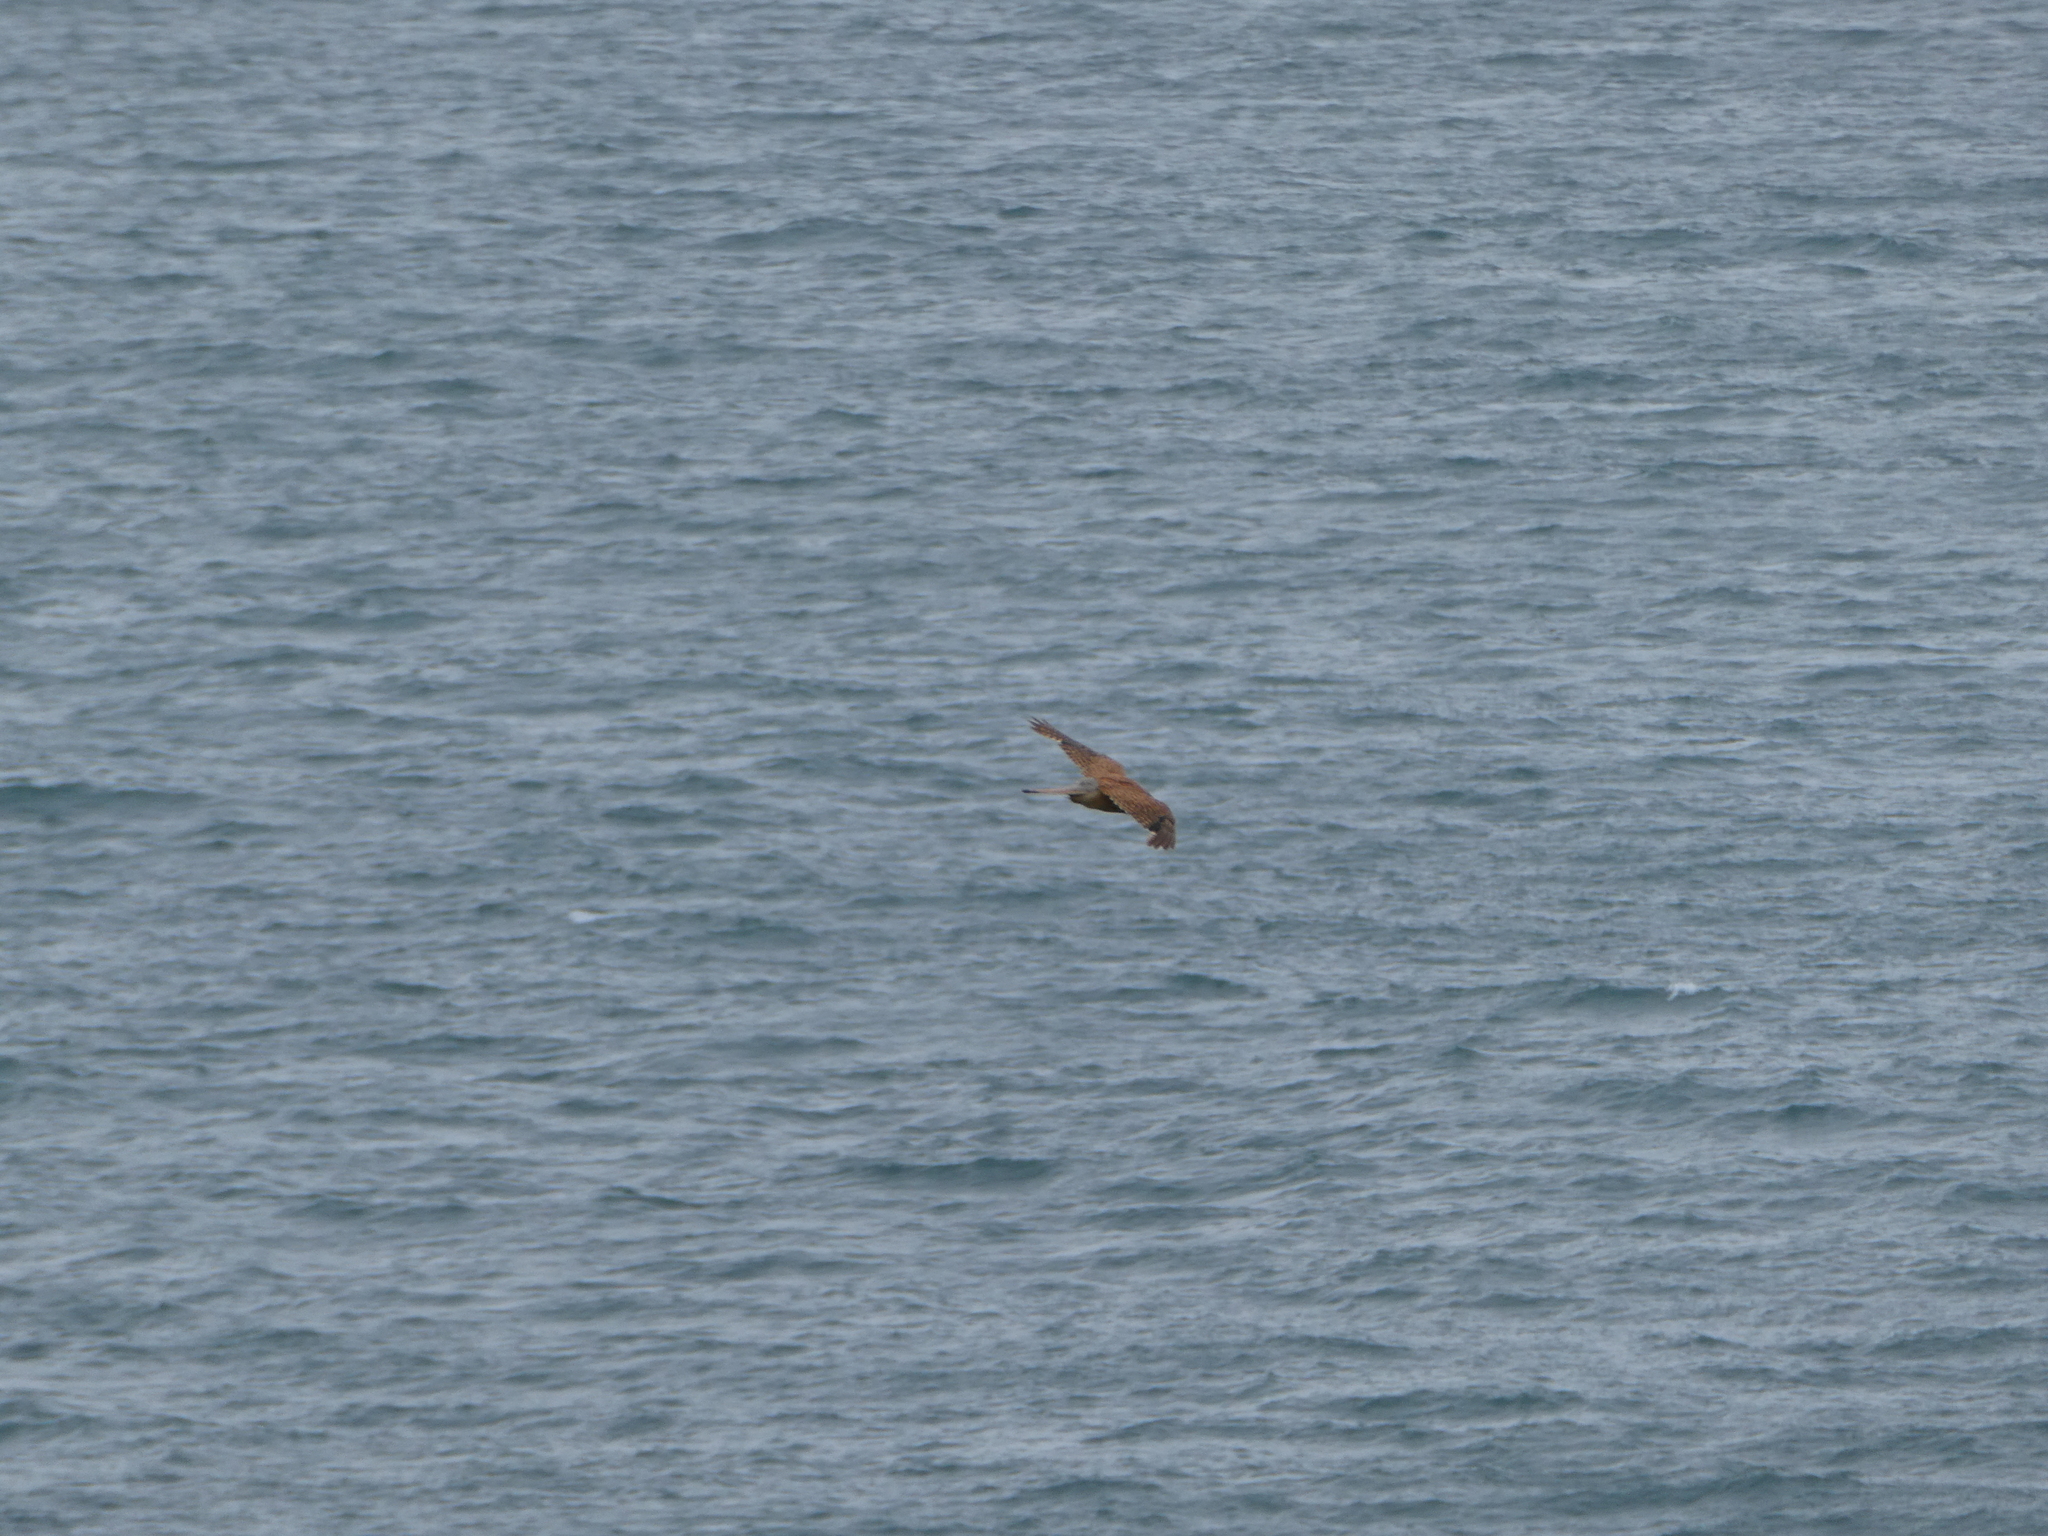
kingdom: Animalia
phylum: Chordata
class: Aves
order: Falconiformes
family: Falconidae
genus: Falco
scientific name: Falco tinnunculus
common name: Common kestrel
